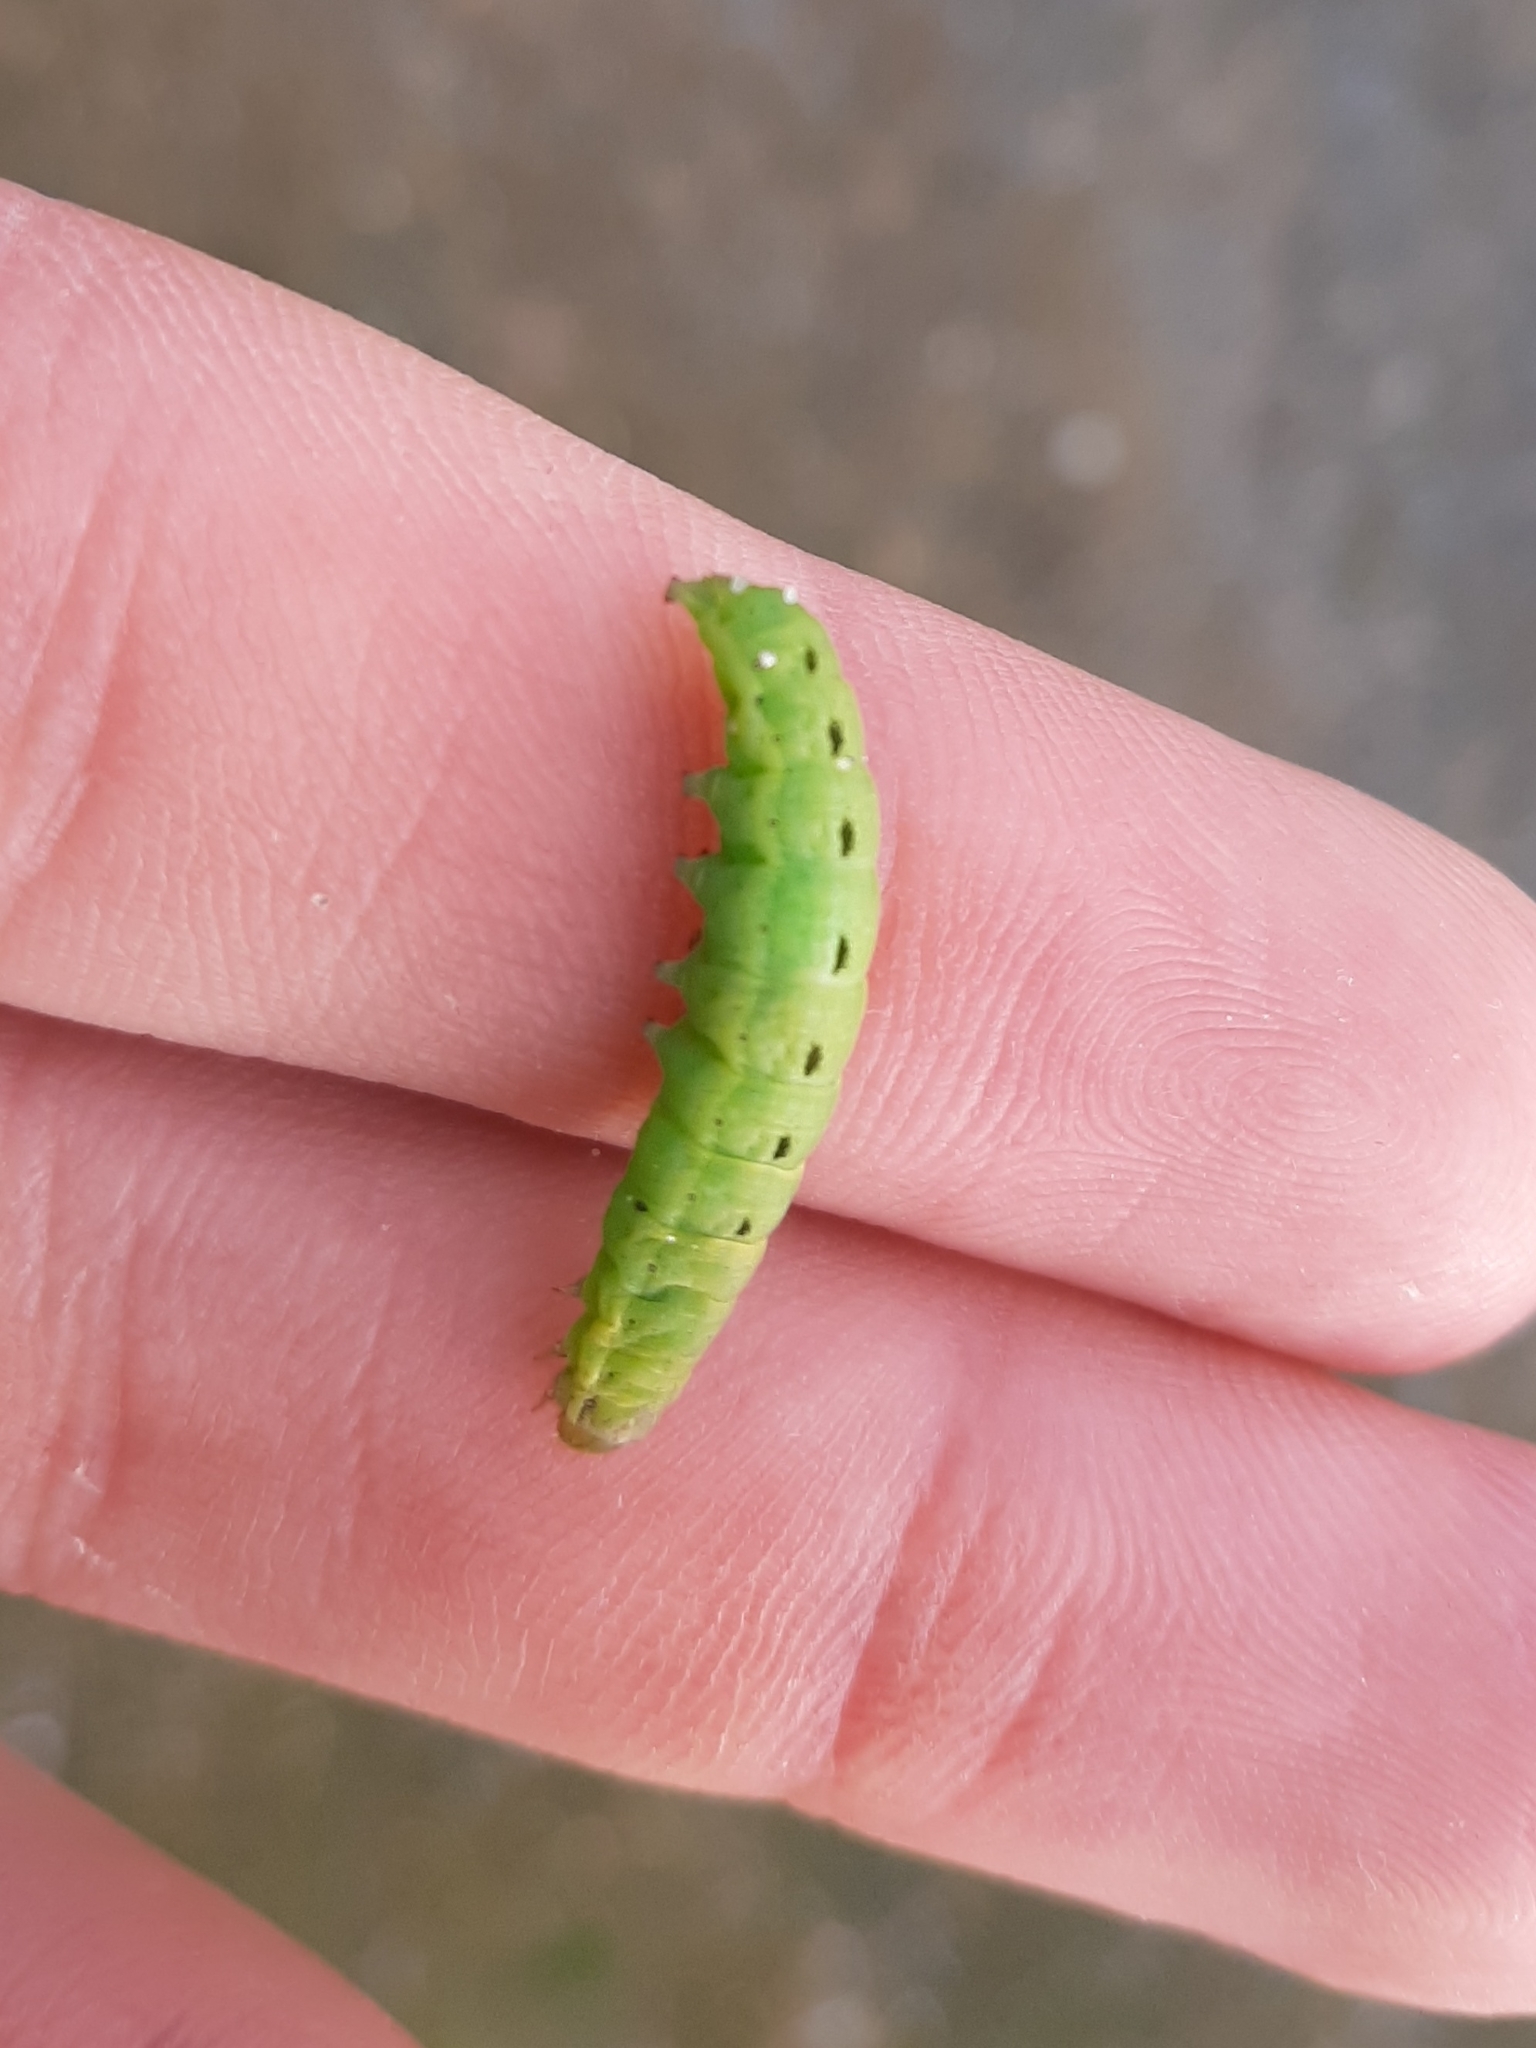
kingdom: Animalia
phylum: Arthropoda
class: Insecta
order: Lepidoptera
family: Noctuidae
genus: Dargida
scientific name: Dargida procinctus
